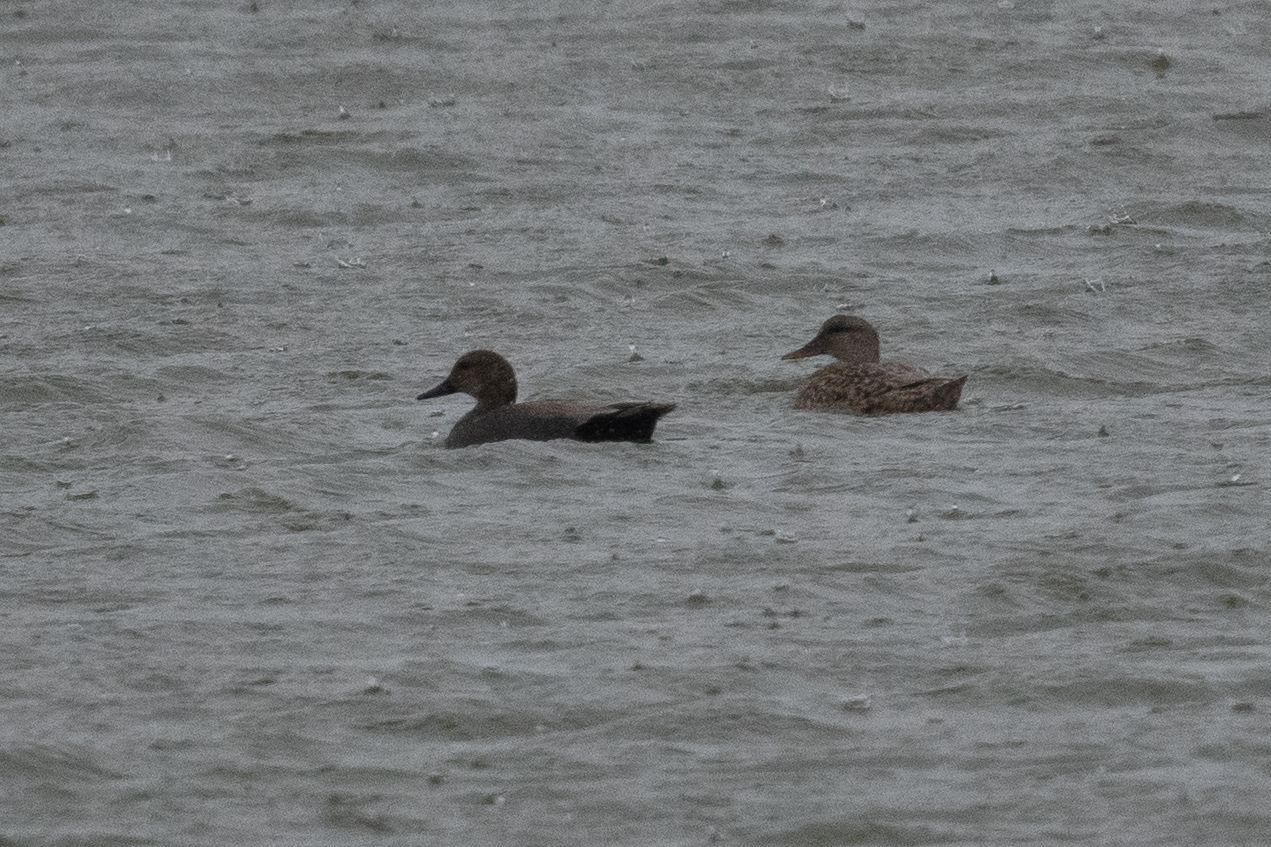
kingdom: Animalia
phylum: Chordata
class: Aves
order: Anseriformes
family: Anatidae
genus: Mareca
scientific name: Mareca strepera
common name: Gadwall
